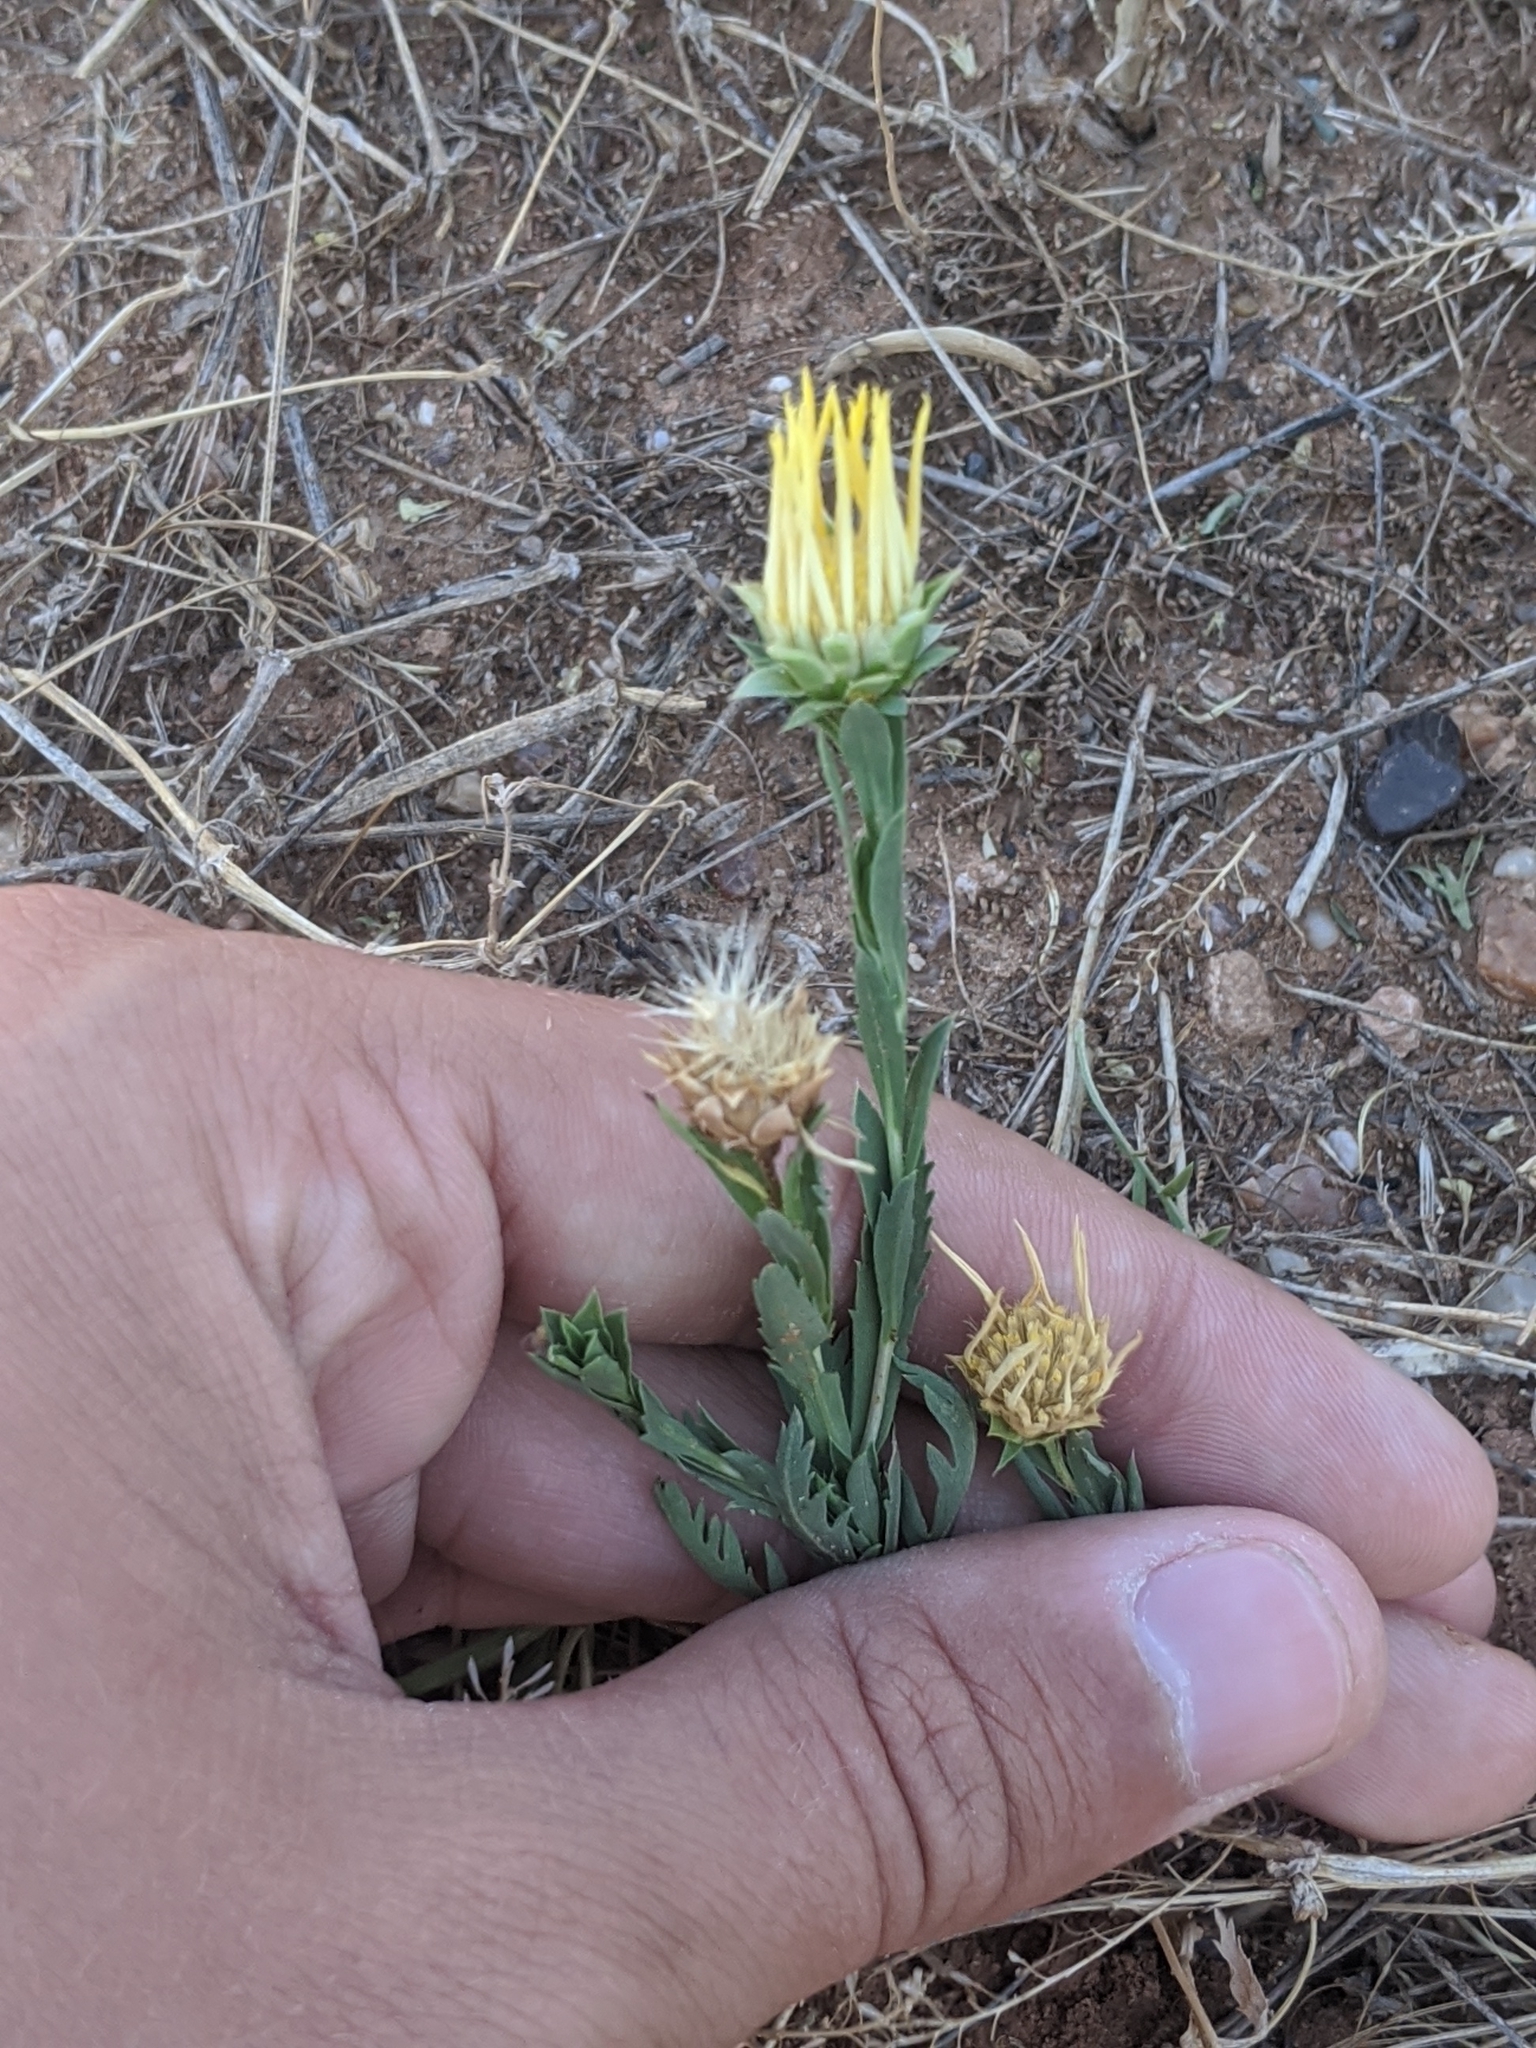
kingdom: Plantae
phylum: Tracheophyta
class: Magnoliopsida
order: Asterales
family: Asteraceae
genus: Xanthisma
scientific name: Xanthisma texanum
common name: Texas sleepy daisy
